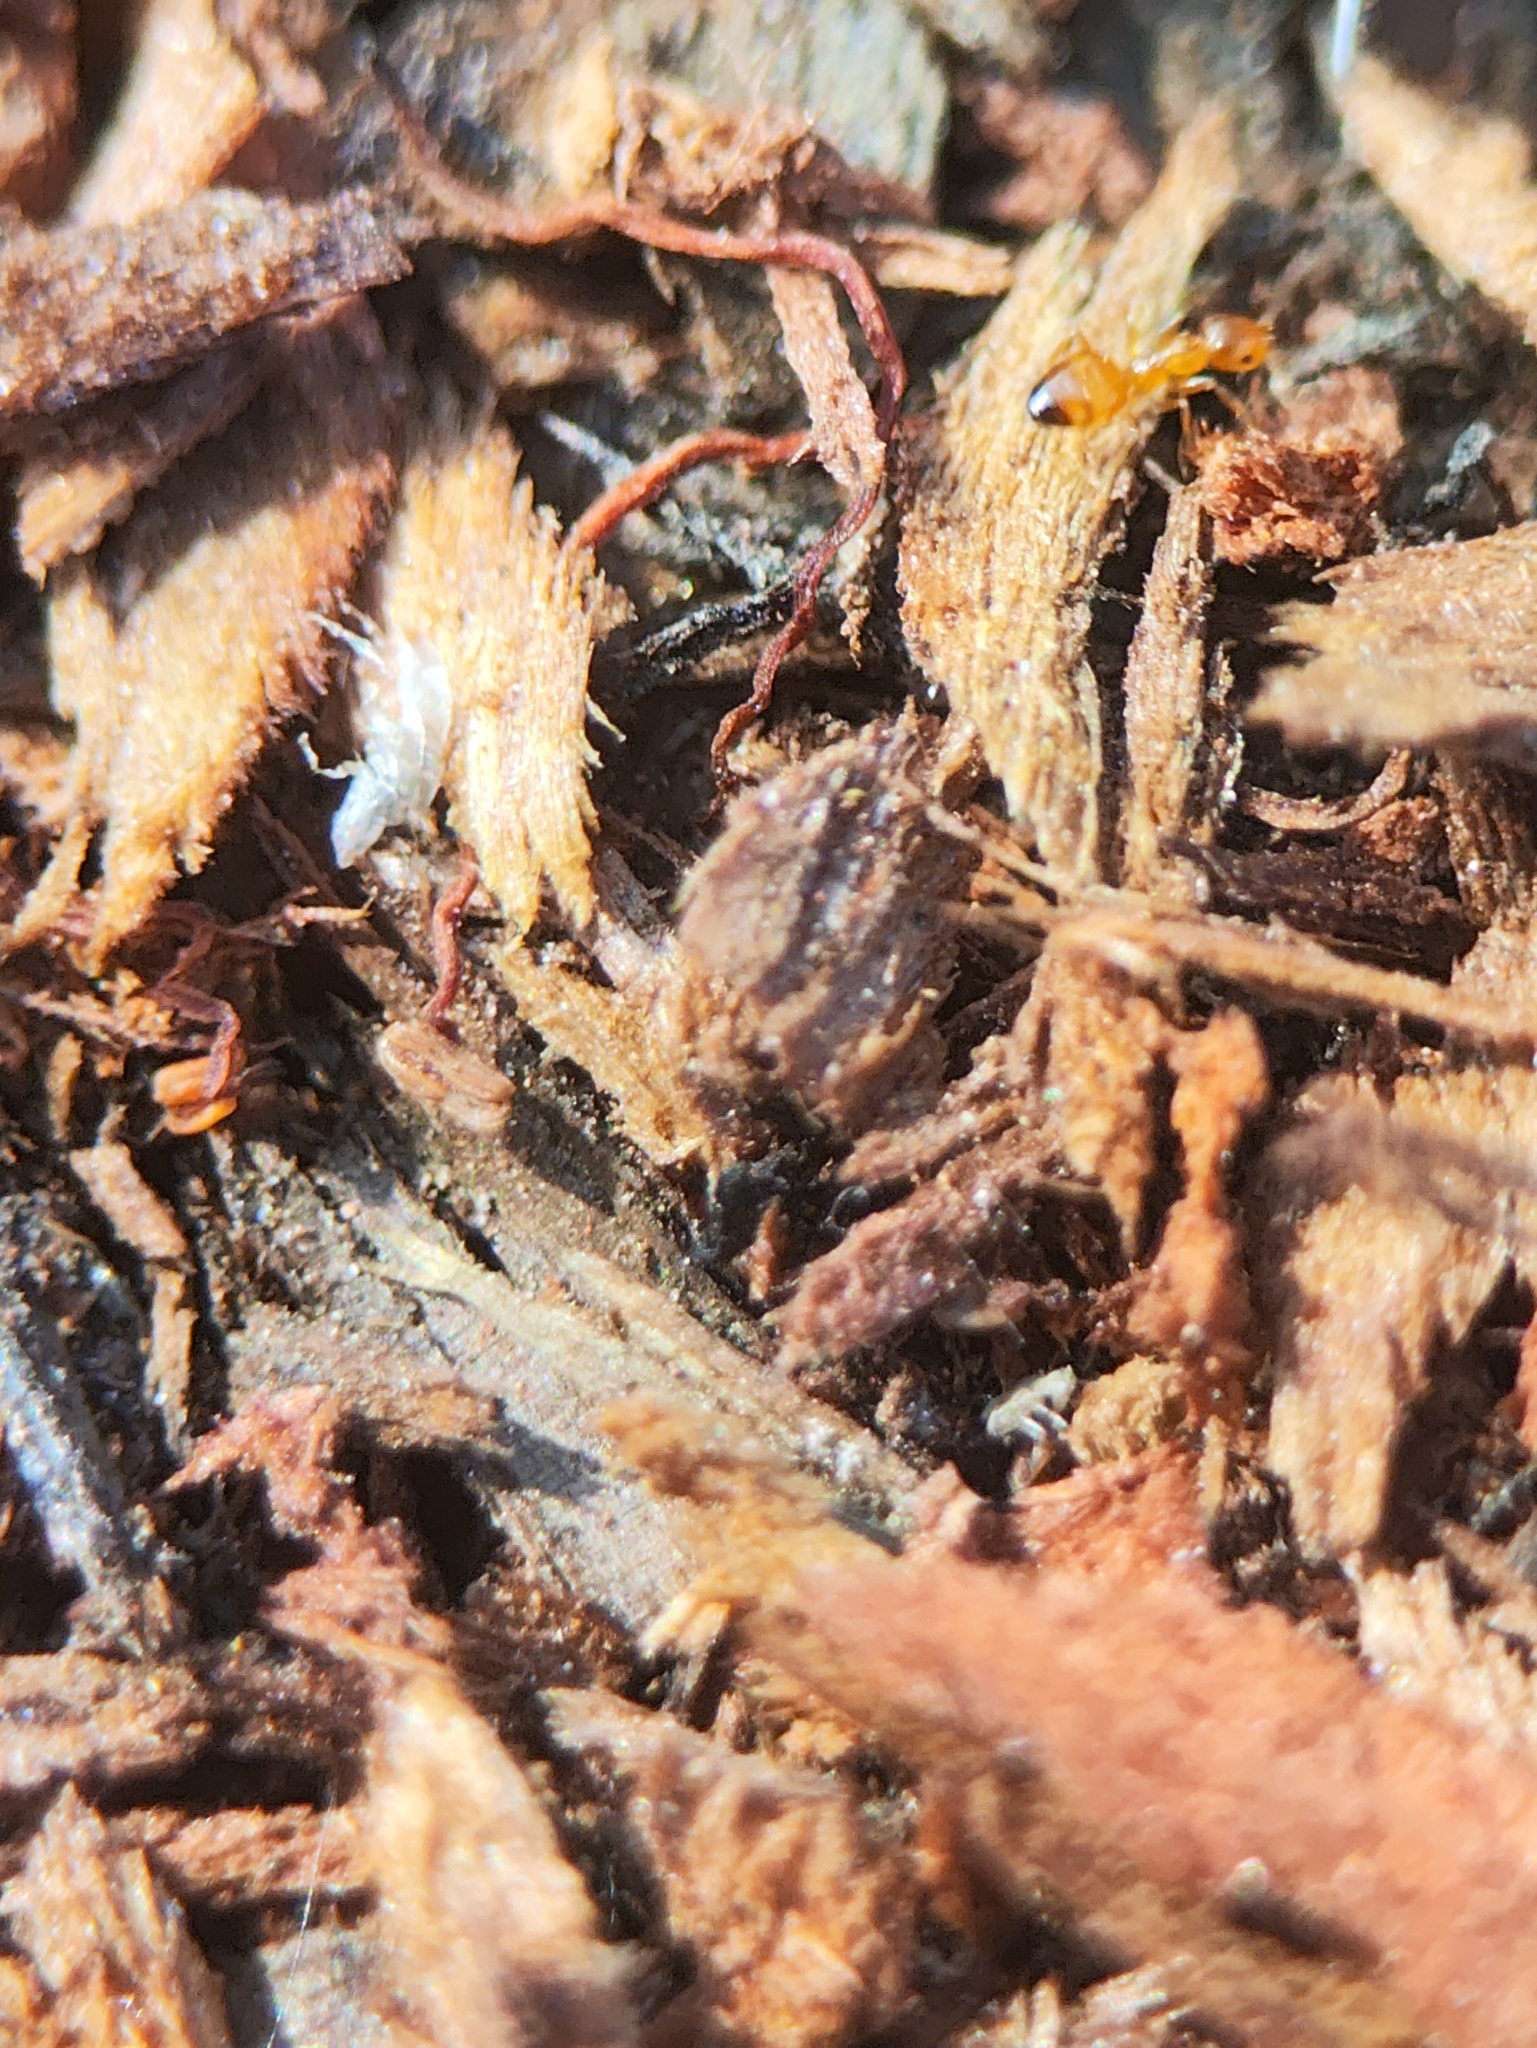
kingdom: Animalia
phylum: Arthropoda
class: Insecta
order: Hymenoptera
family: Formicidae
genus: Plagiolepis
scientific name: Plagiolepis alluaudi
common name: Little yellow ant
